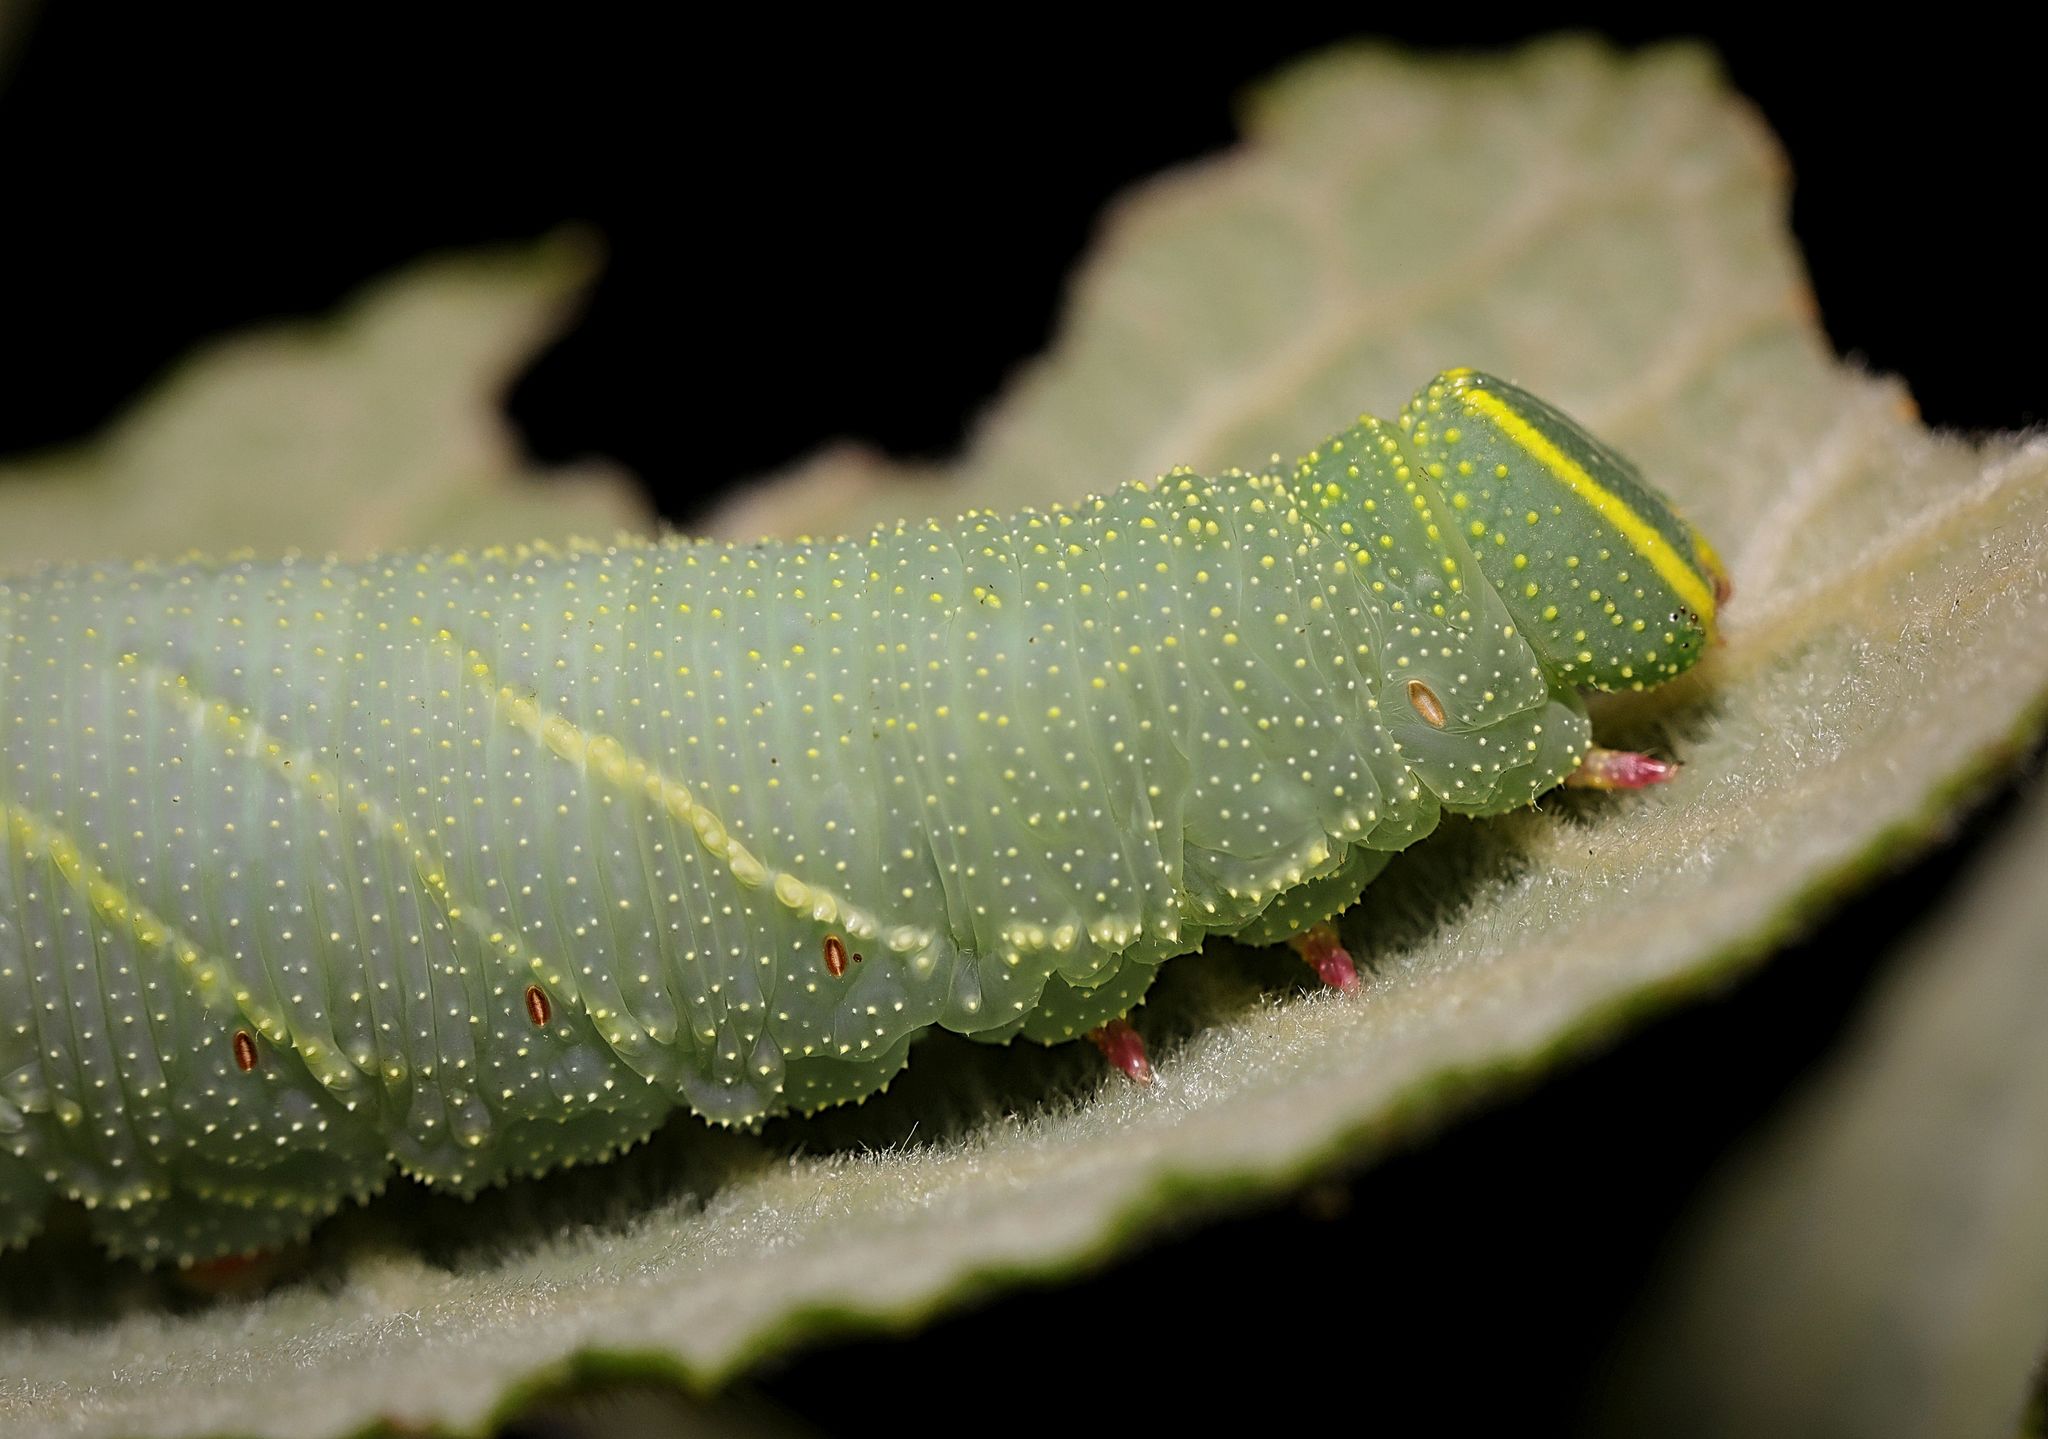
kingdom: Animalia
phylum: Arthropoda
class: Insecta
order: Lepidoptera
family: Sphingidae
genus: Laothoe
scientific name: Laothoe populi
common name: Poplar hawk-moth
